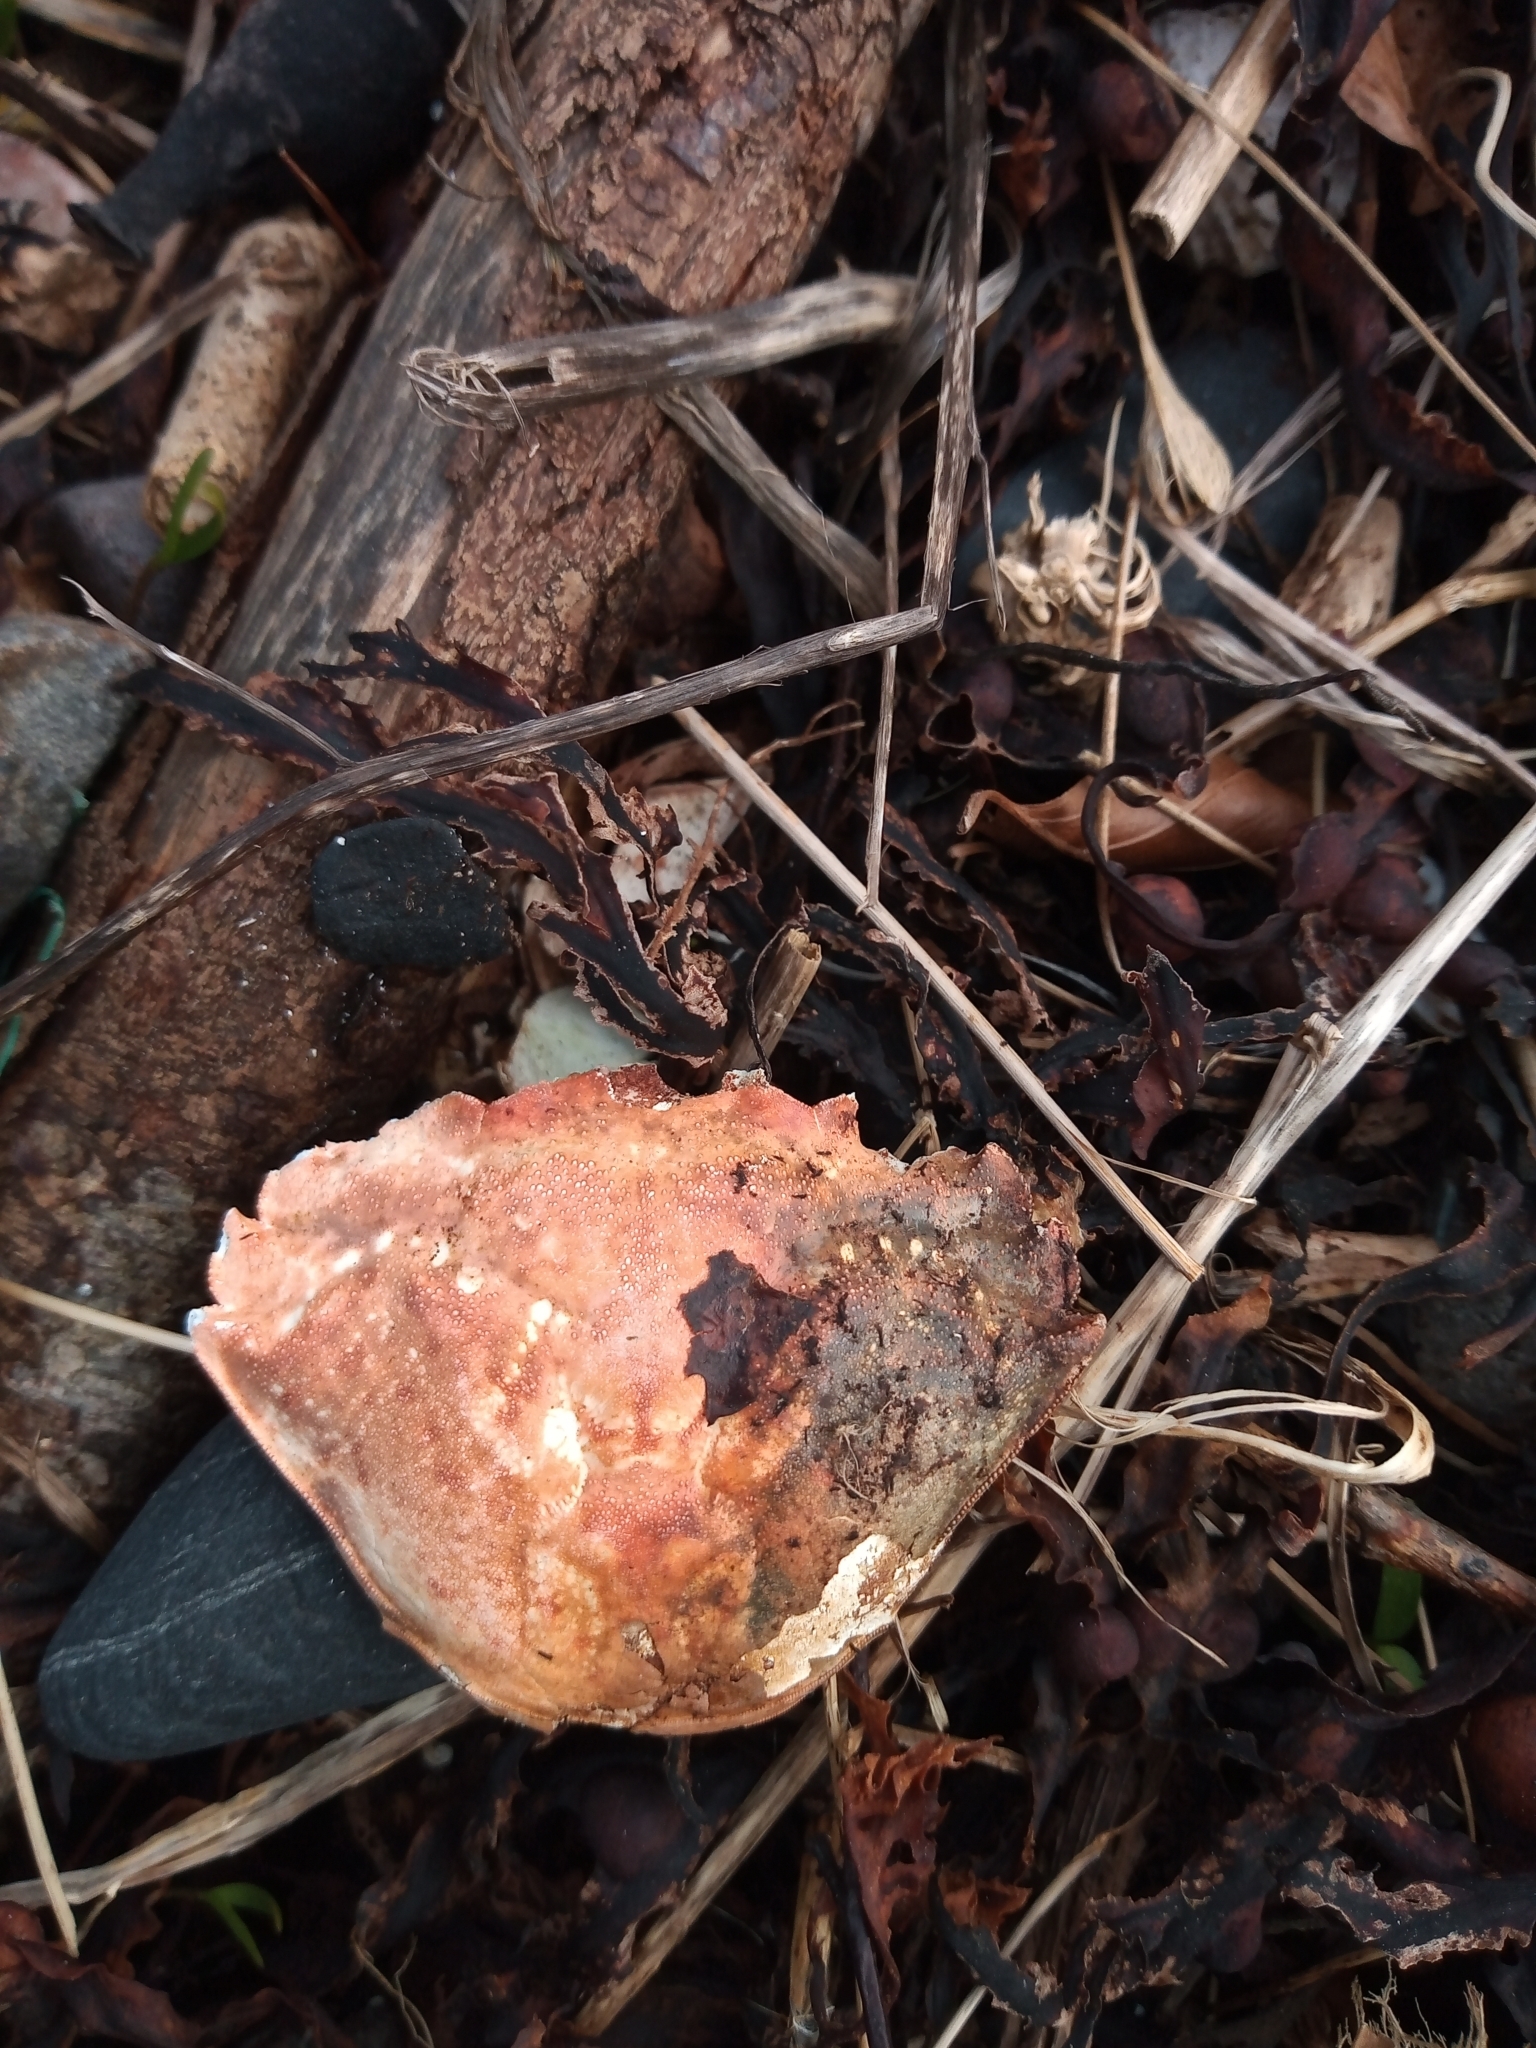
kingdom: Animalia
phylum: Arthropoda
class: Malacostraca
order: Decapoda
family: Carcinidae
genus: Carcinus
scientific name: Carcinus maenas
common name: European green crab
